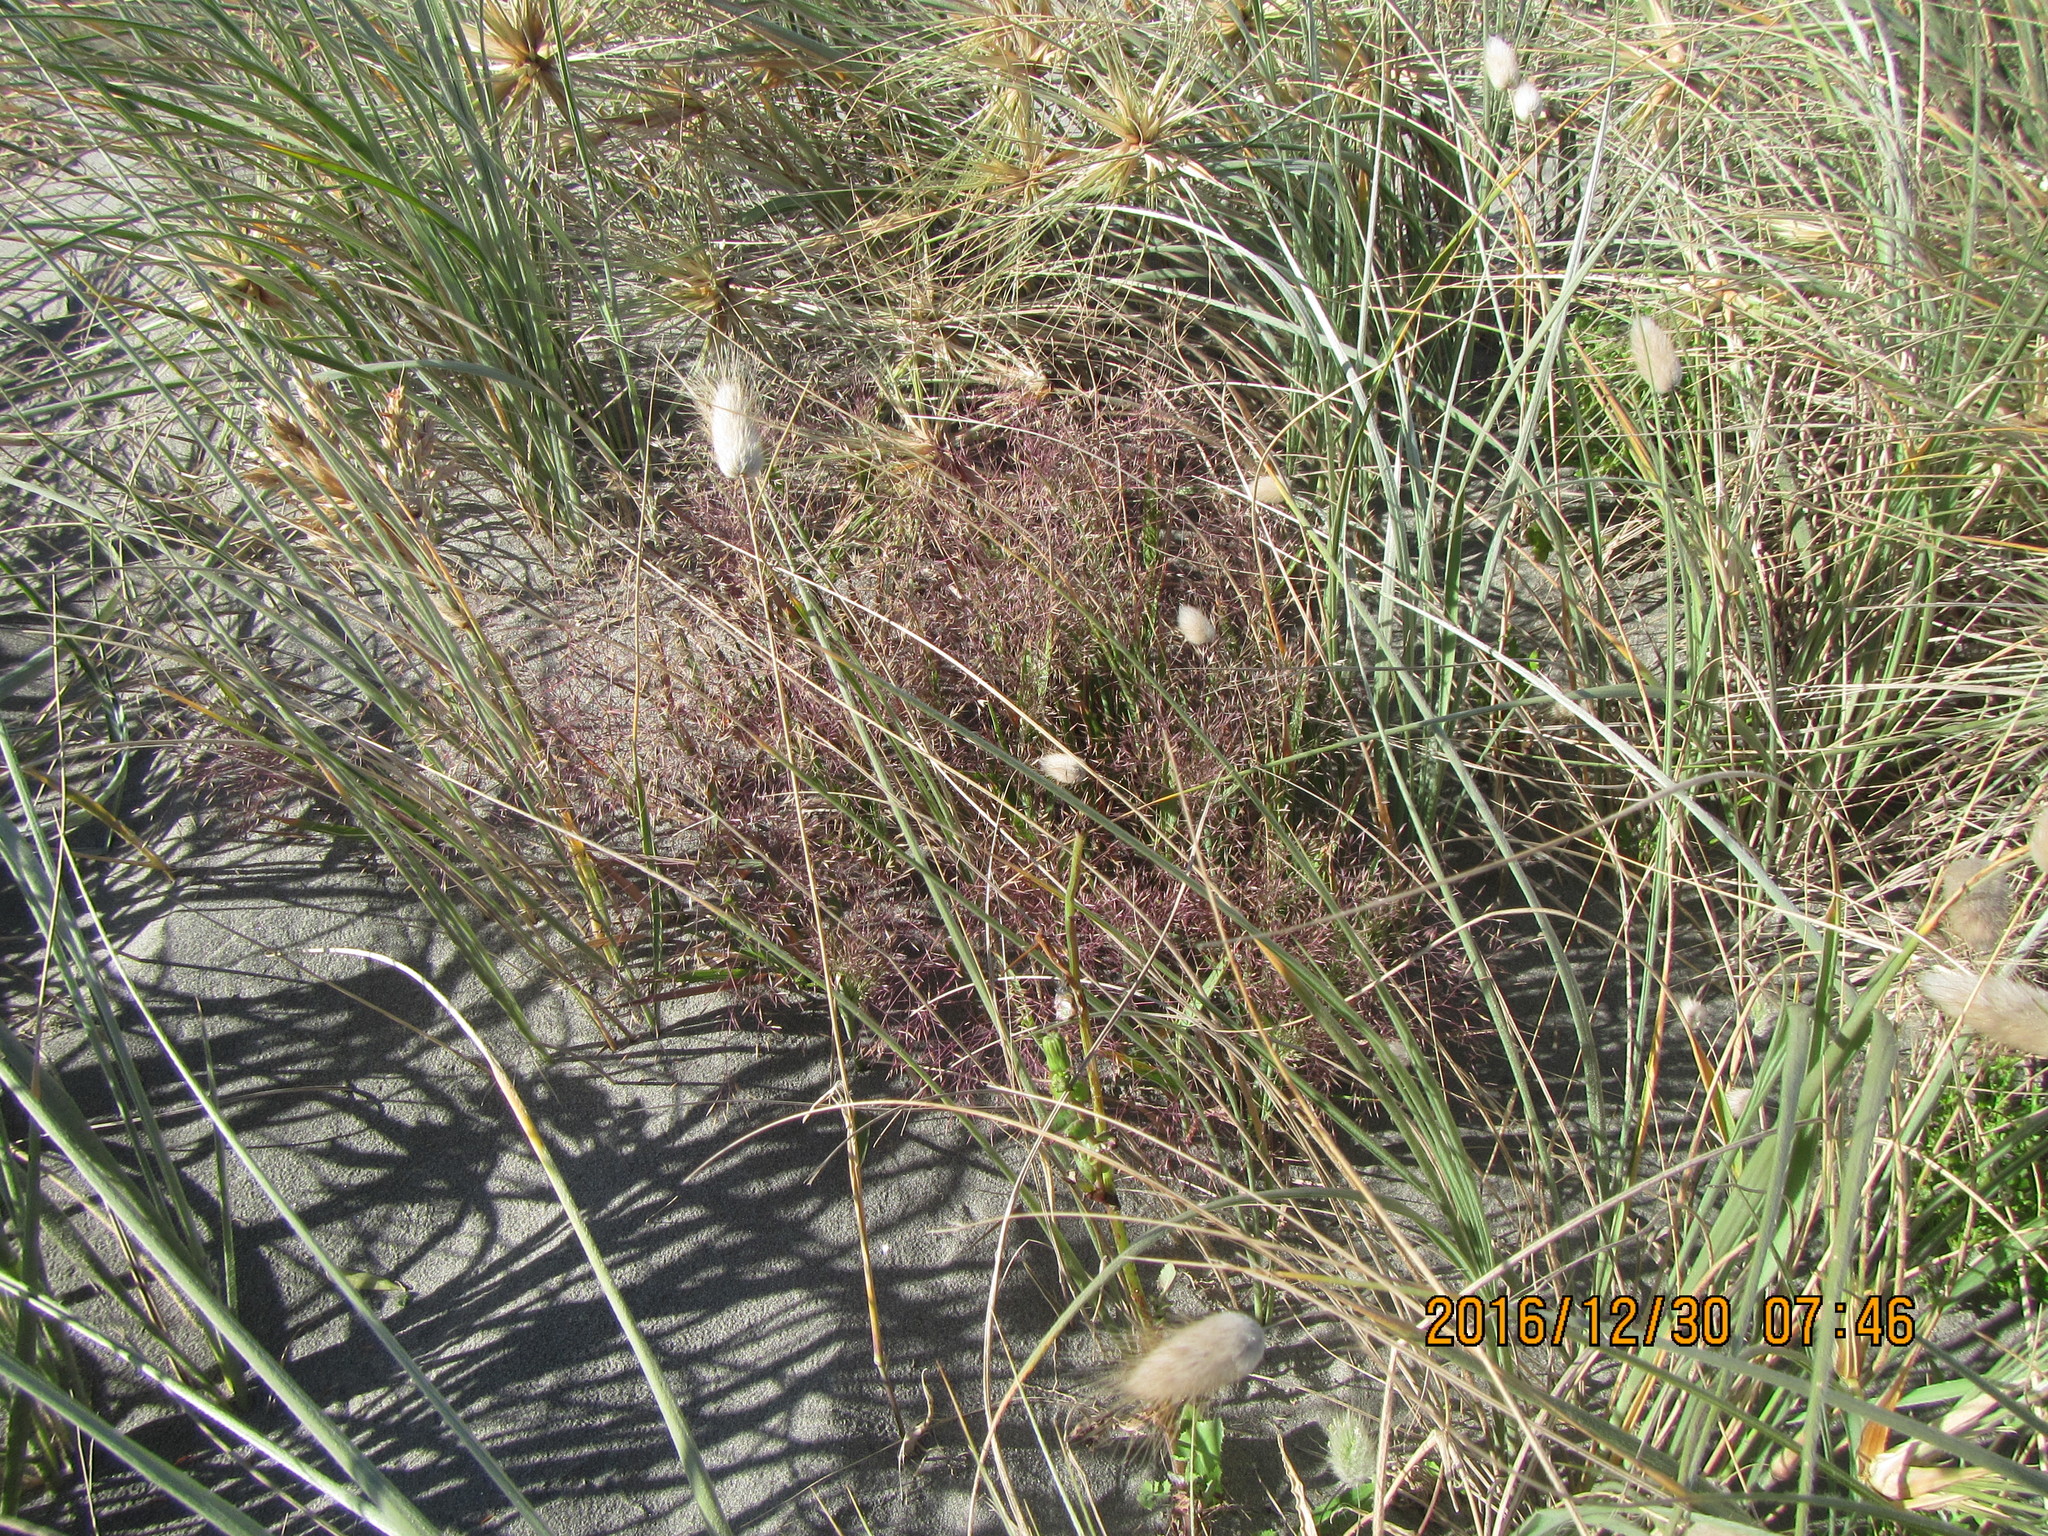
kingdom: Plantae
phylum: Tracheophyta
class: Liliopsida
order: Poales
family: Poaceae
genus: Lachnagrostis
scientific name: Lachnagrostis billardierei
